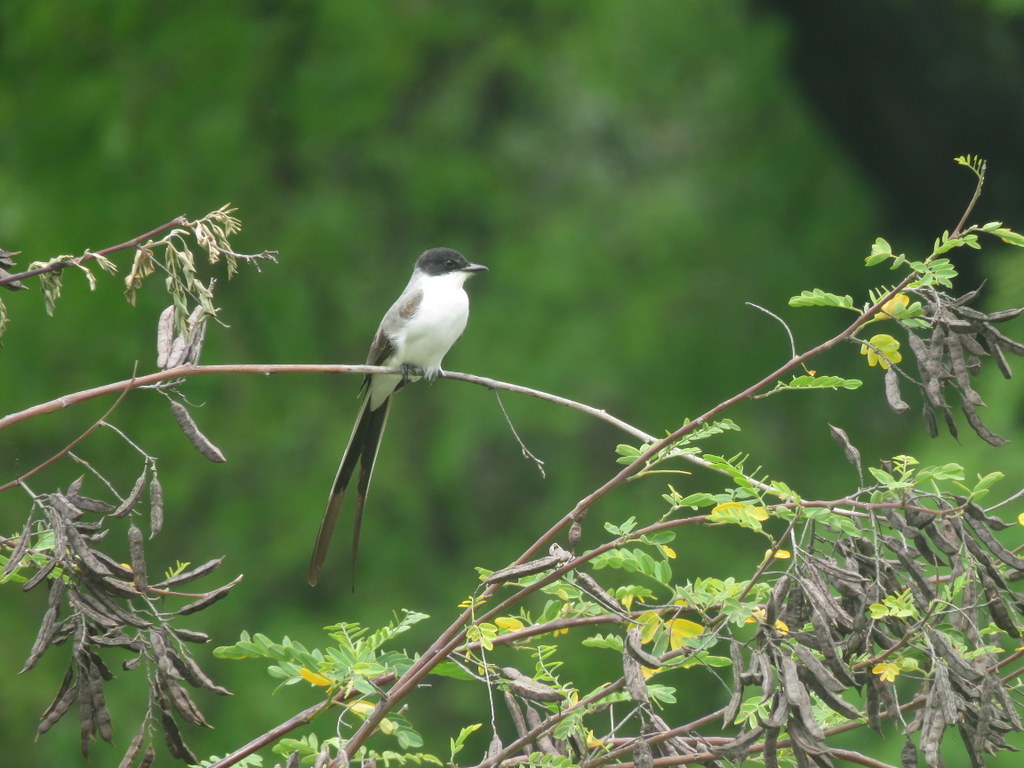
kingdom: Animalia
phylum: Chordata
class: Aves
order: Passeriformes
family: Tyrannidae
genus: Tyrannus
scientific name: Tyrannus savana
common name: Fork-tailed flycatcher
